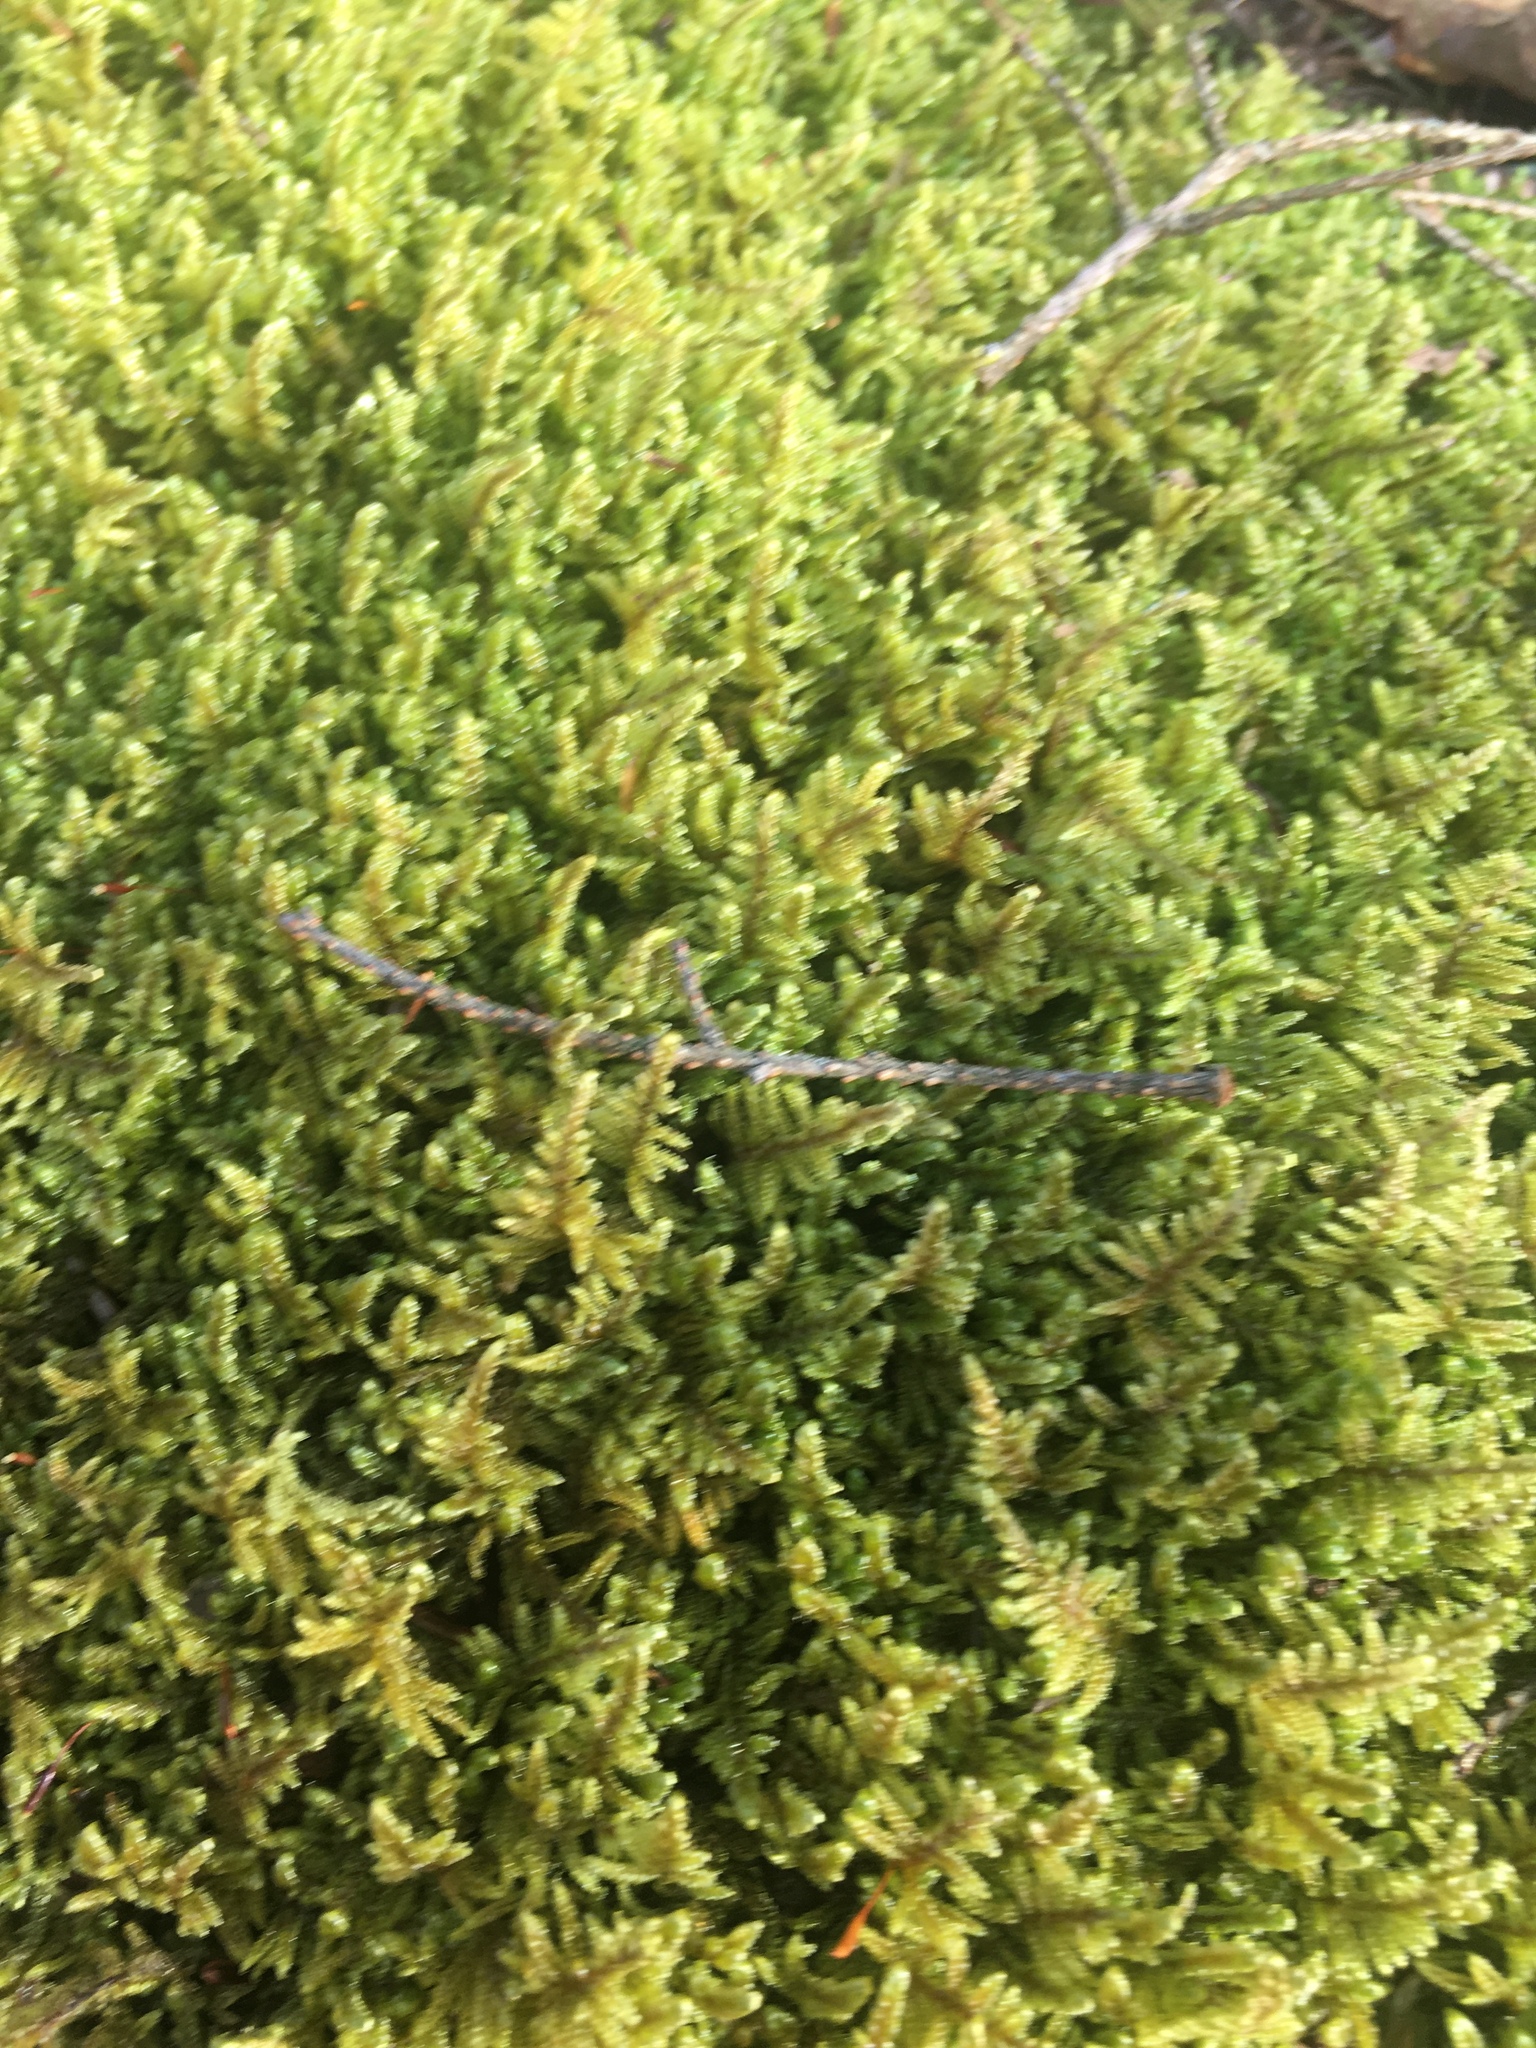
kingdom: Plantae
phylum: Bryophyta
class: Bryopsida
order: Hypnales
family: Callicladiaceae
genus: Callicladium
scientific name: Callicladium imponens
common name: Brocade moss
